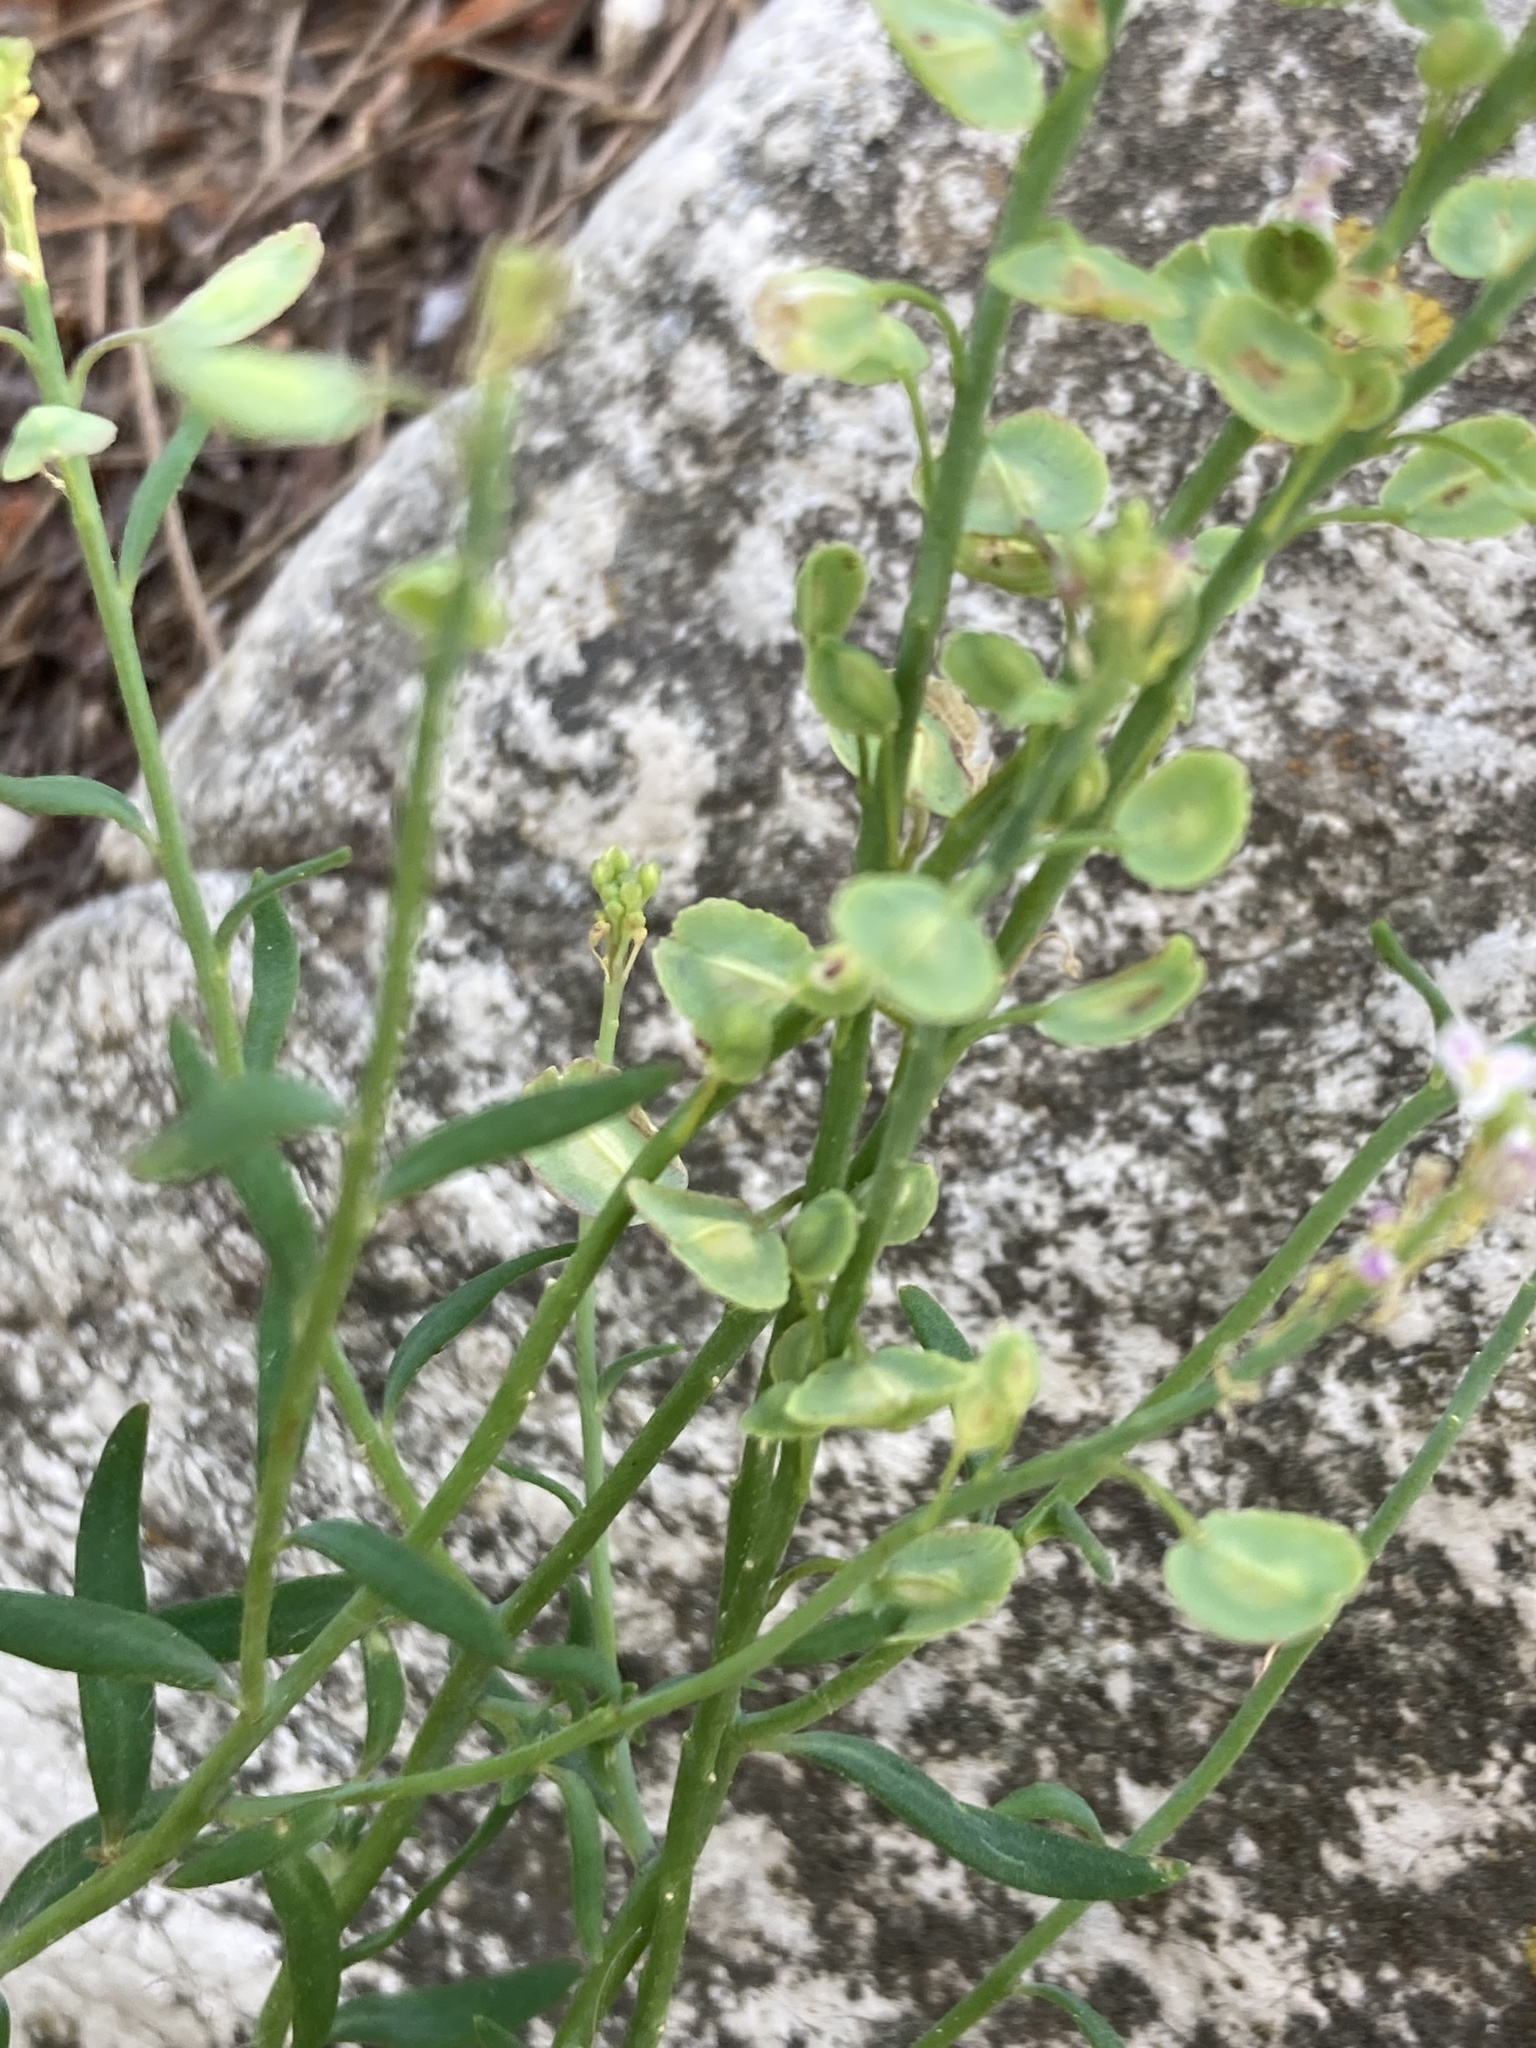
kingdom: Plantae
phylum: Tracheophyta
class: Magnoliopsida
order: Brassicales
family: Brassicaceae
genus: Aethionema
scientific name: Aethionema saxatile
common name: Burnt candytuft
